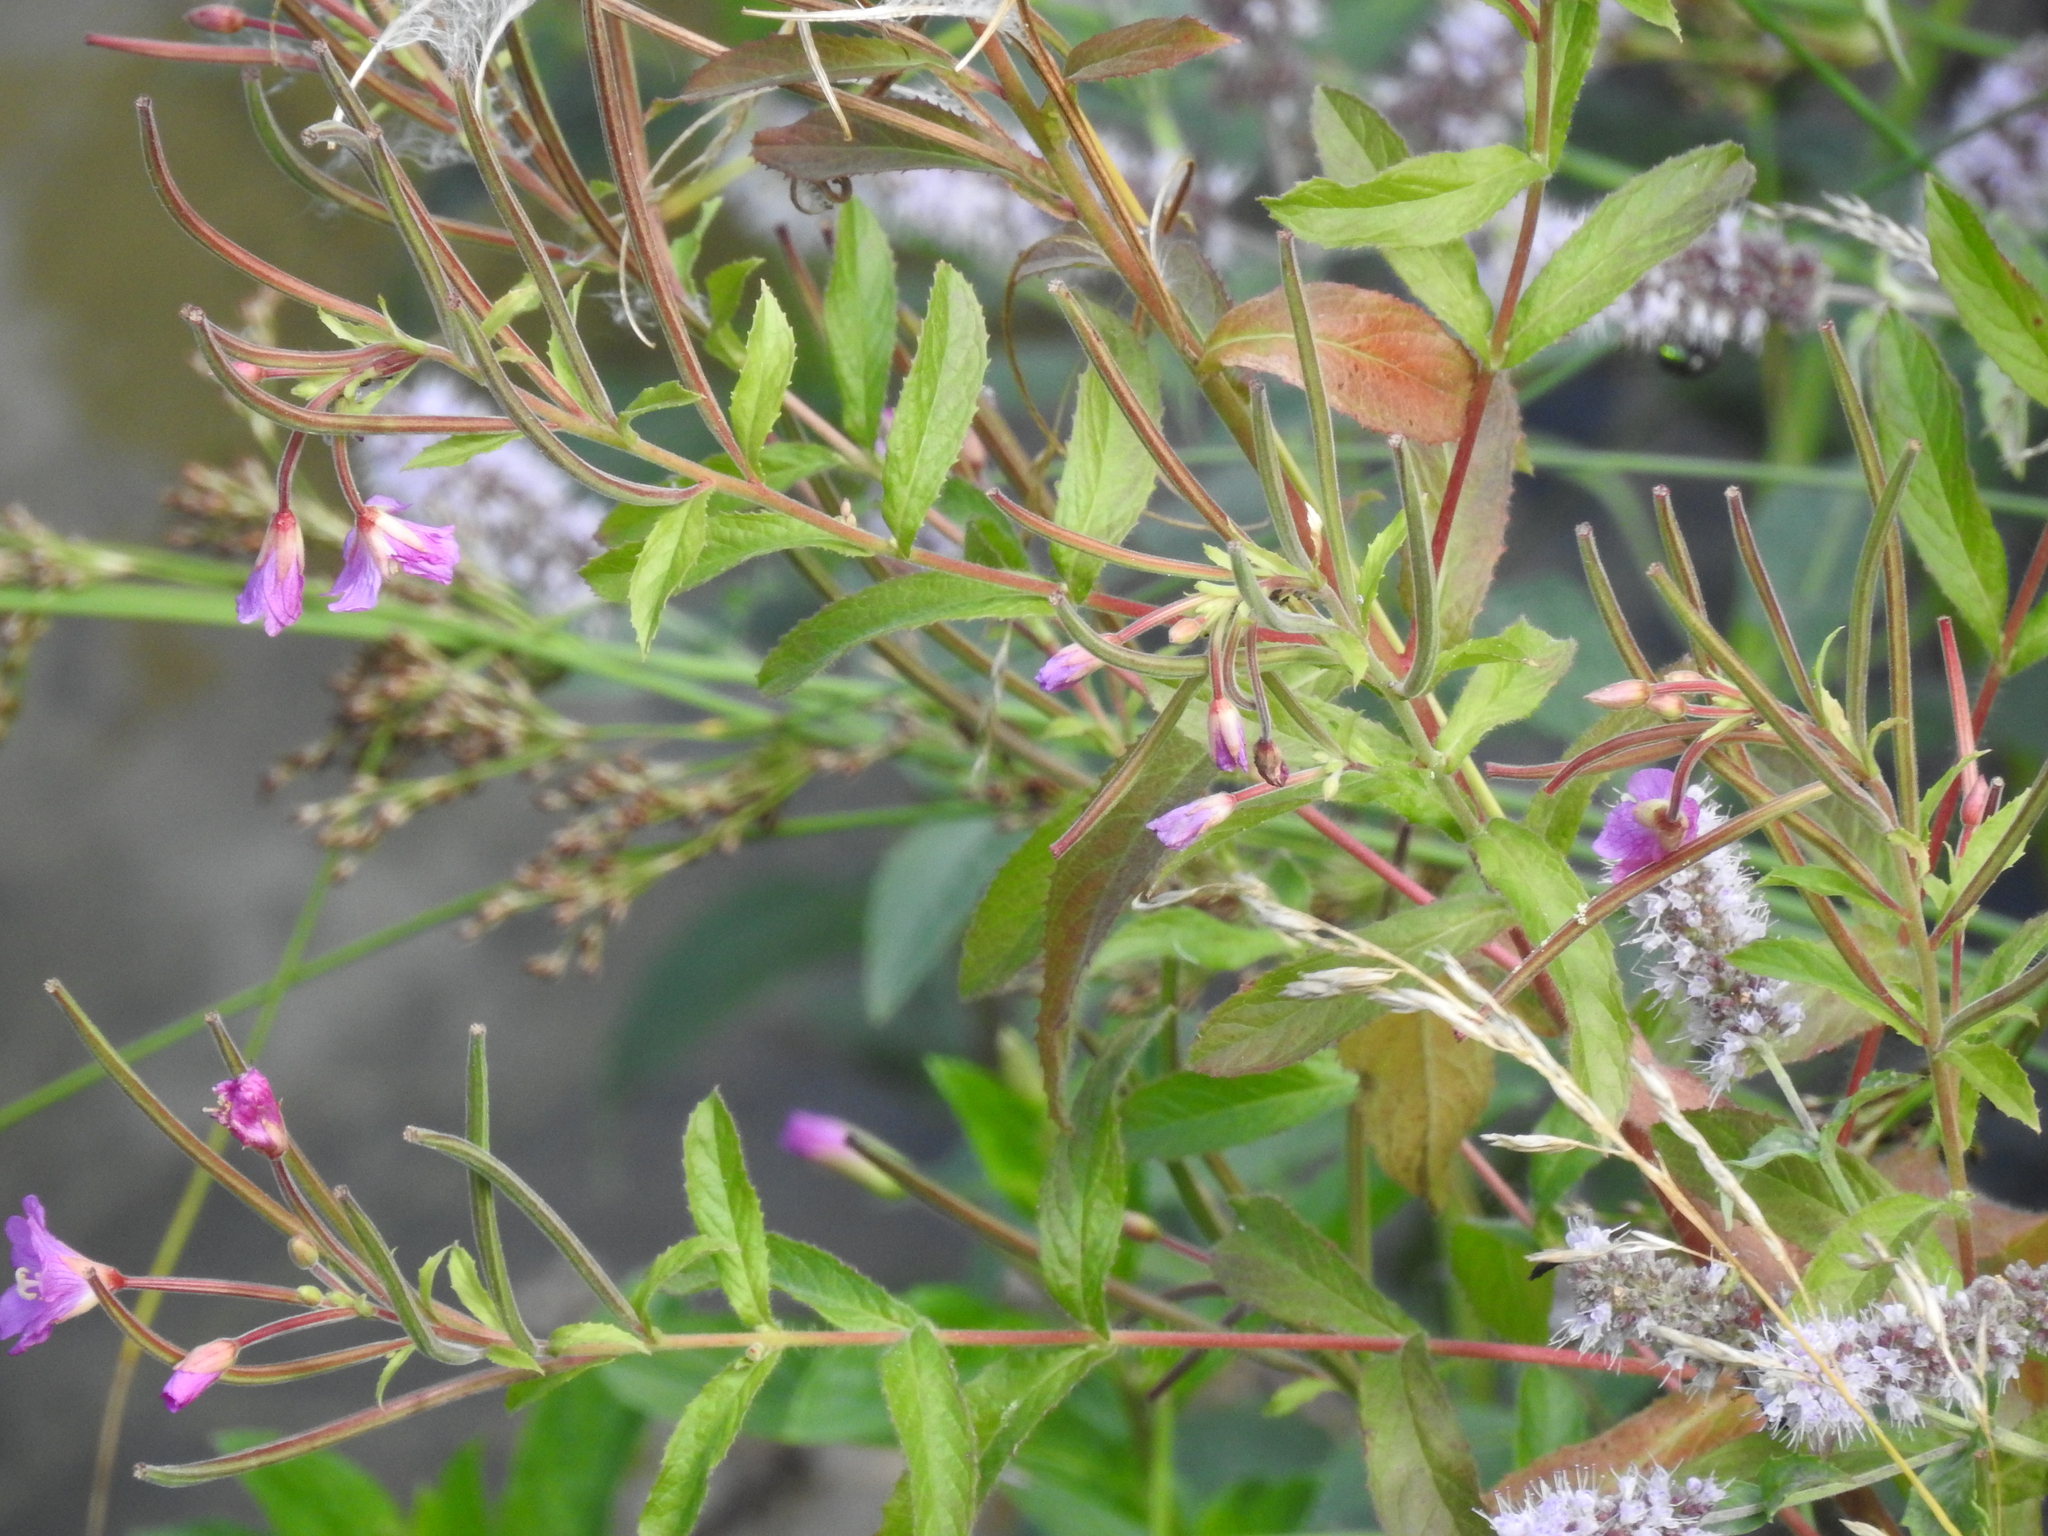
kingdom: Plantae
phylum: Tracheophyta
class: Magnoliopsida
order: Lamiales
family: Lamiaceae
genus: Mentha
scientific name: Mentha longifolia
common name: Horse mint
